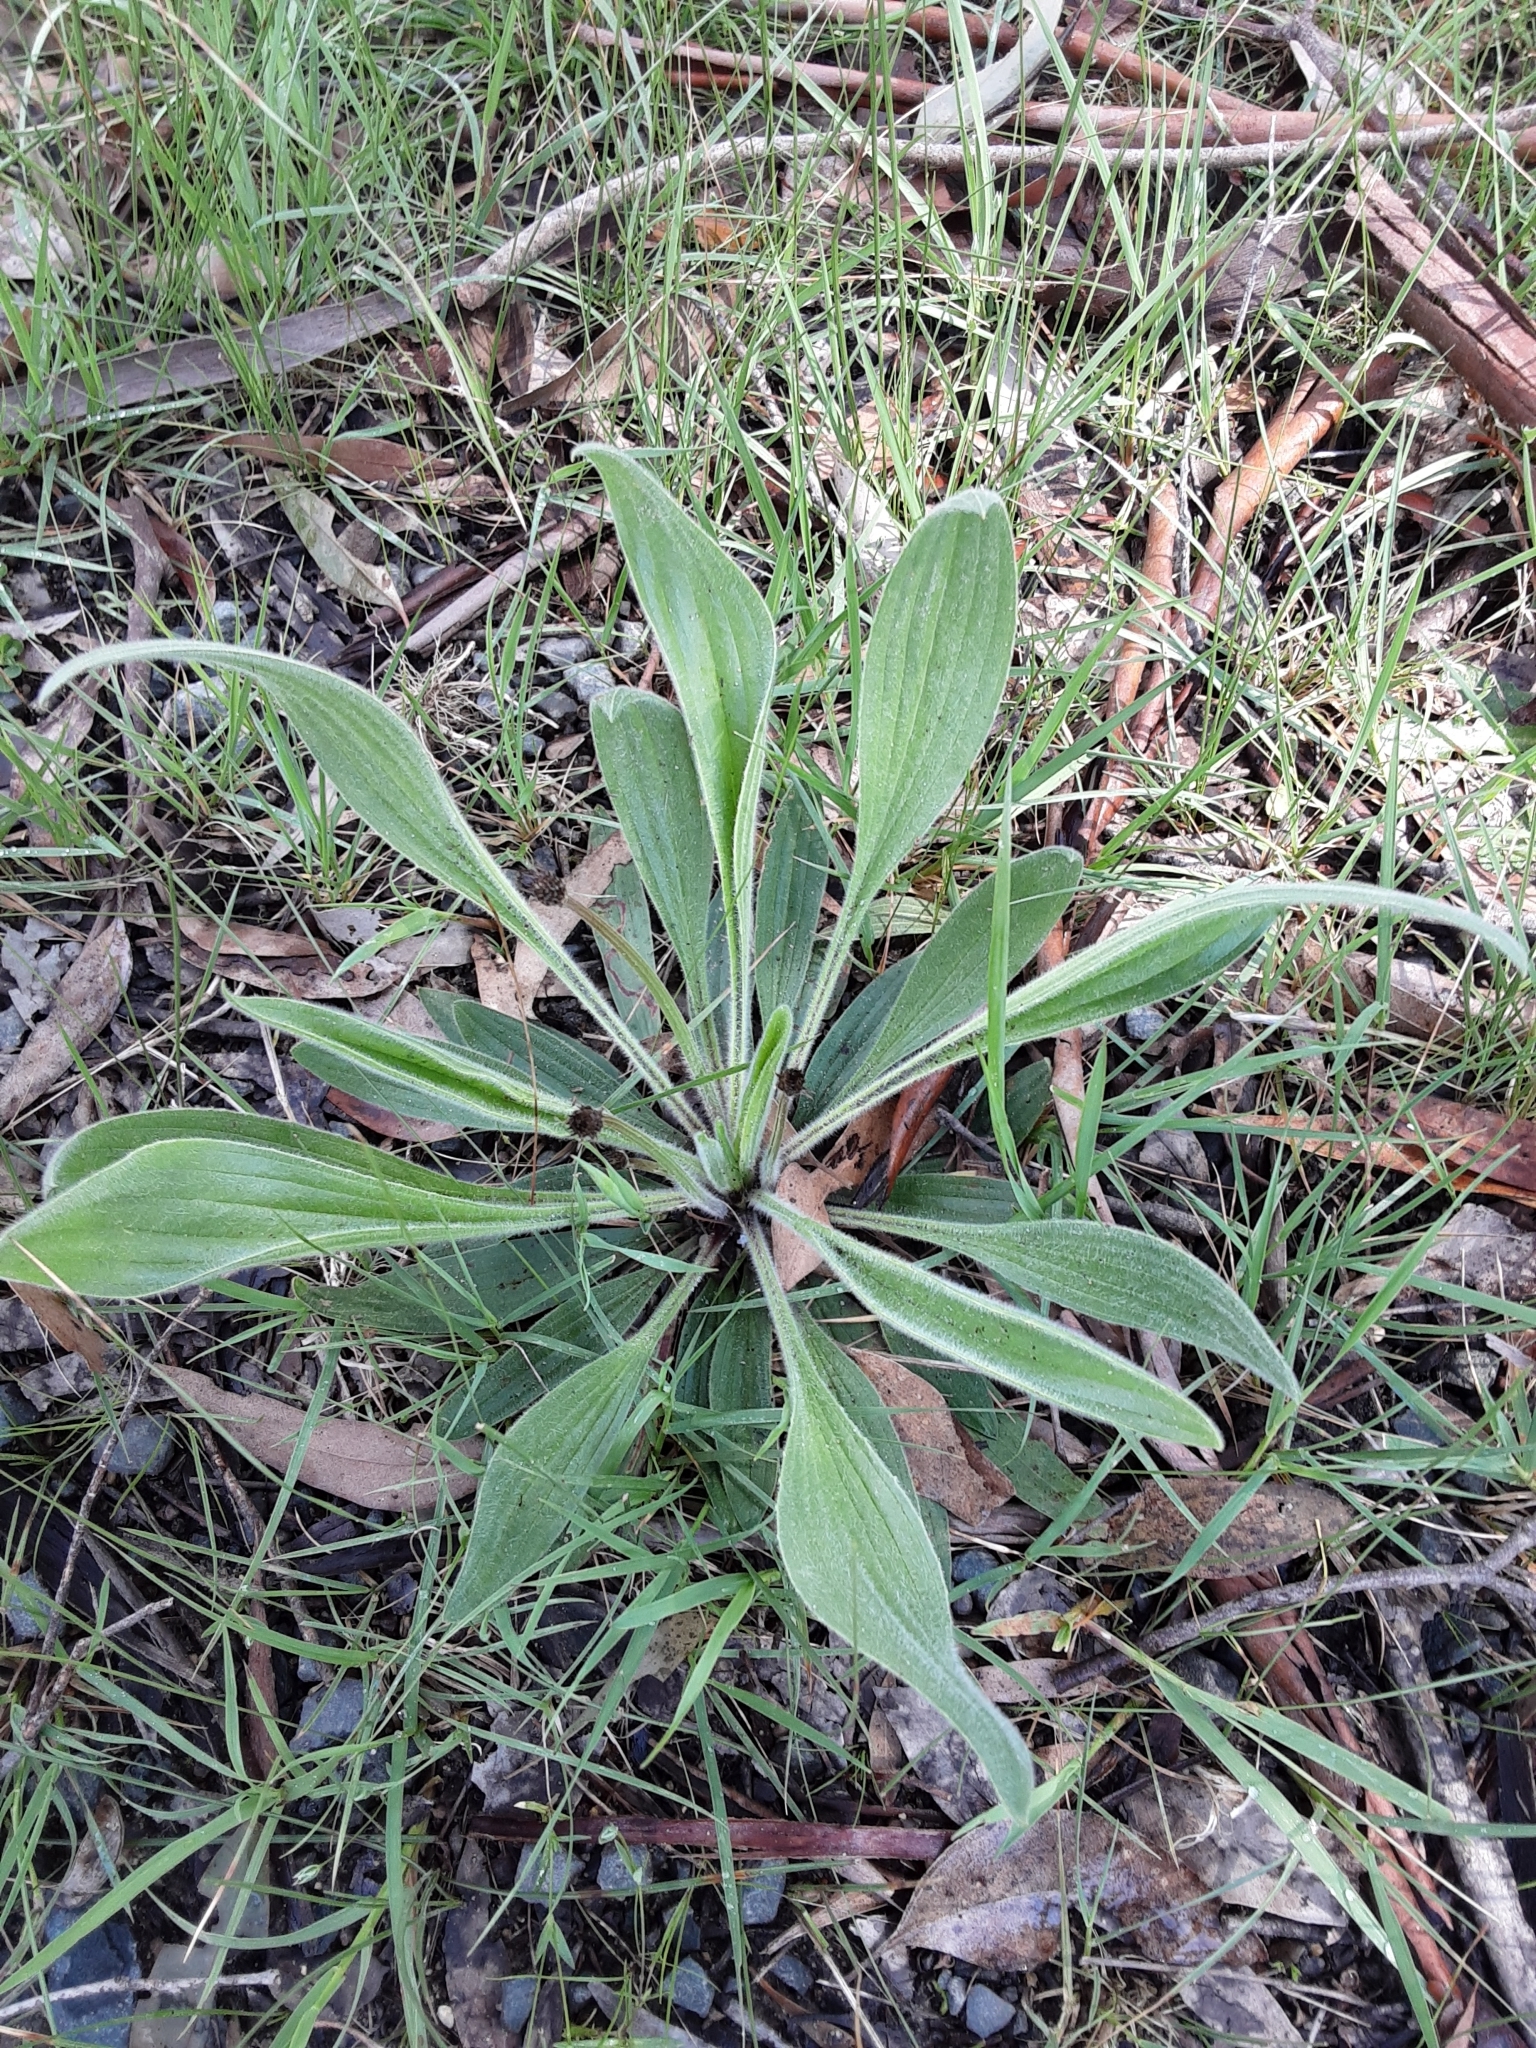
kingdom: Plantae
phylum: Tracheophyta
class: Magnoliopsida
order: Lamiales
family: Plantaginaceae
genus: Plantago
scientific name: Plantago lanceolata
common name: Ribwort plantain
